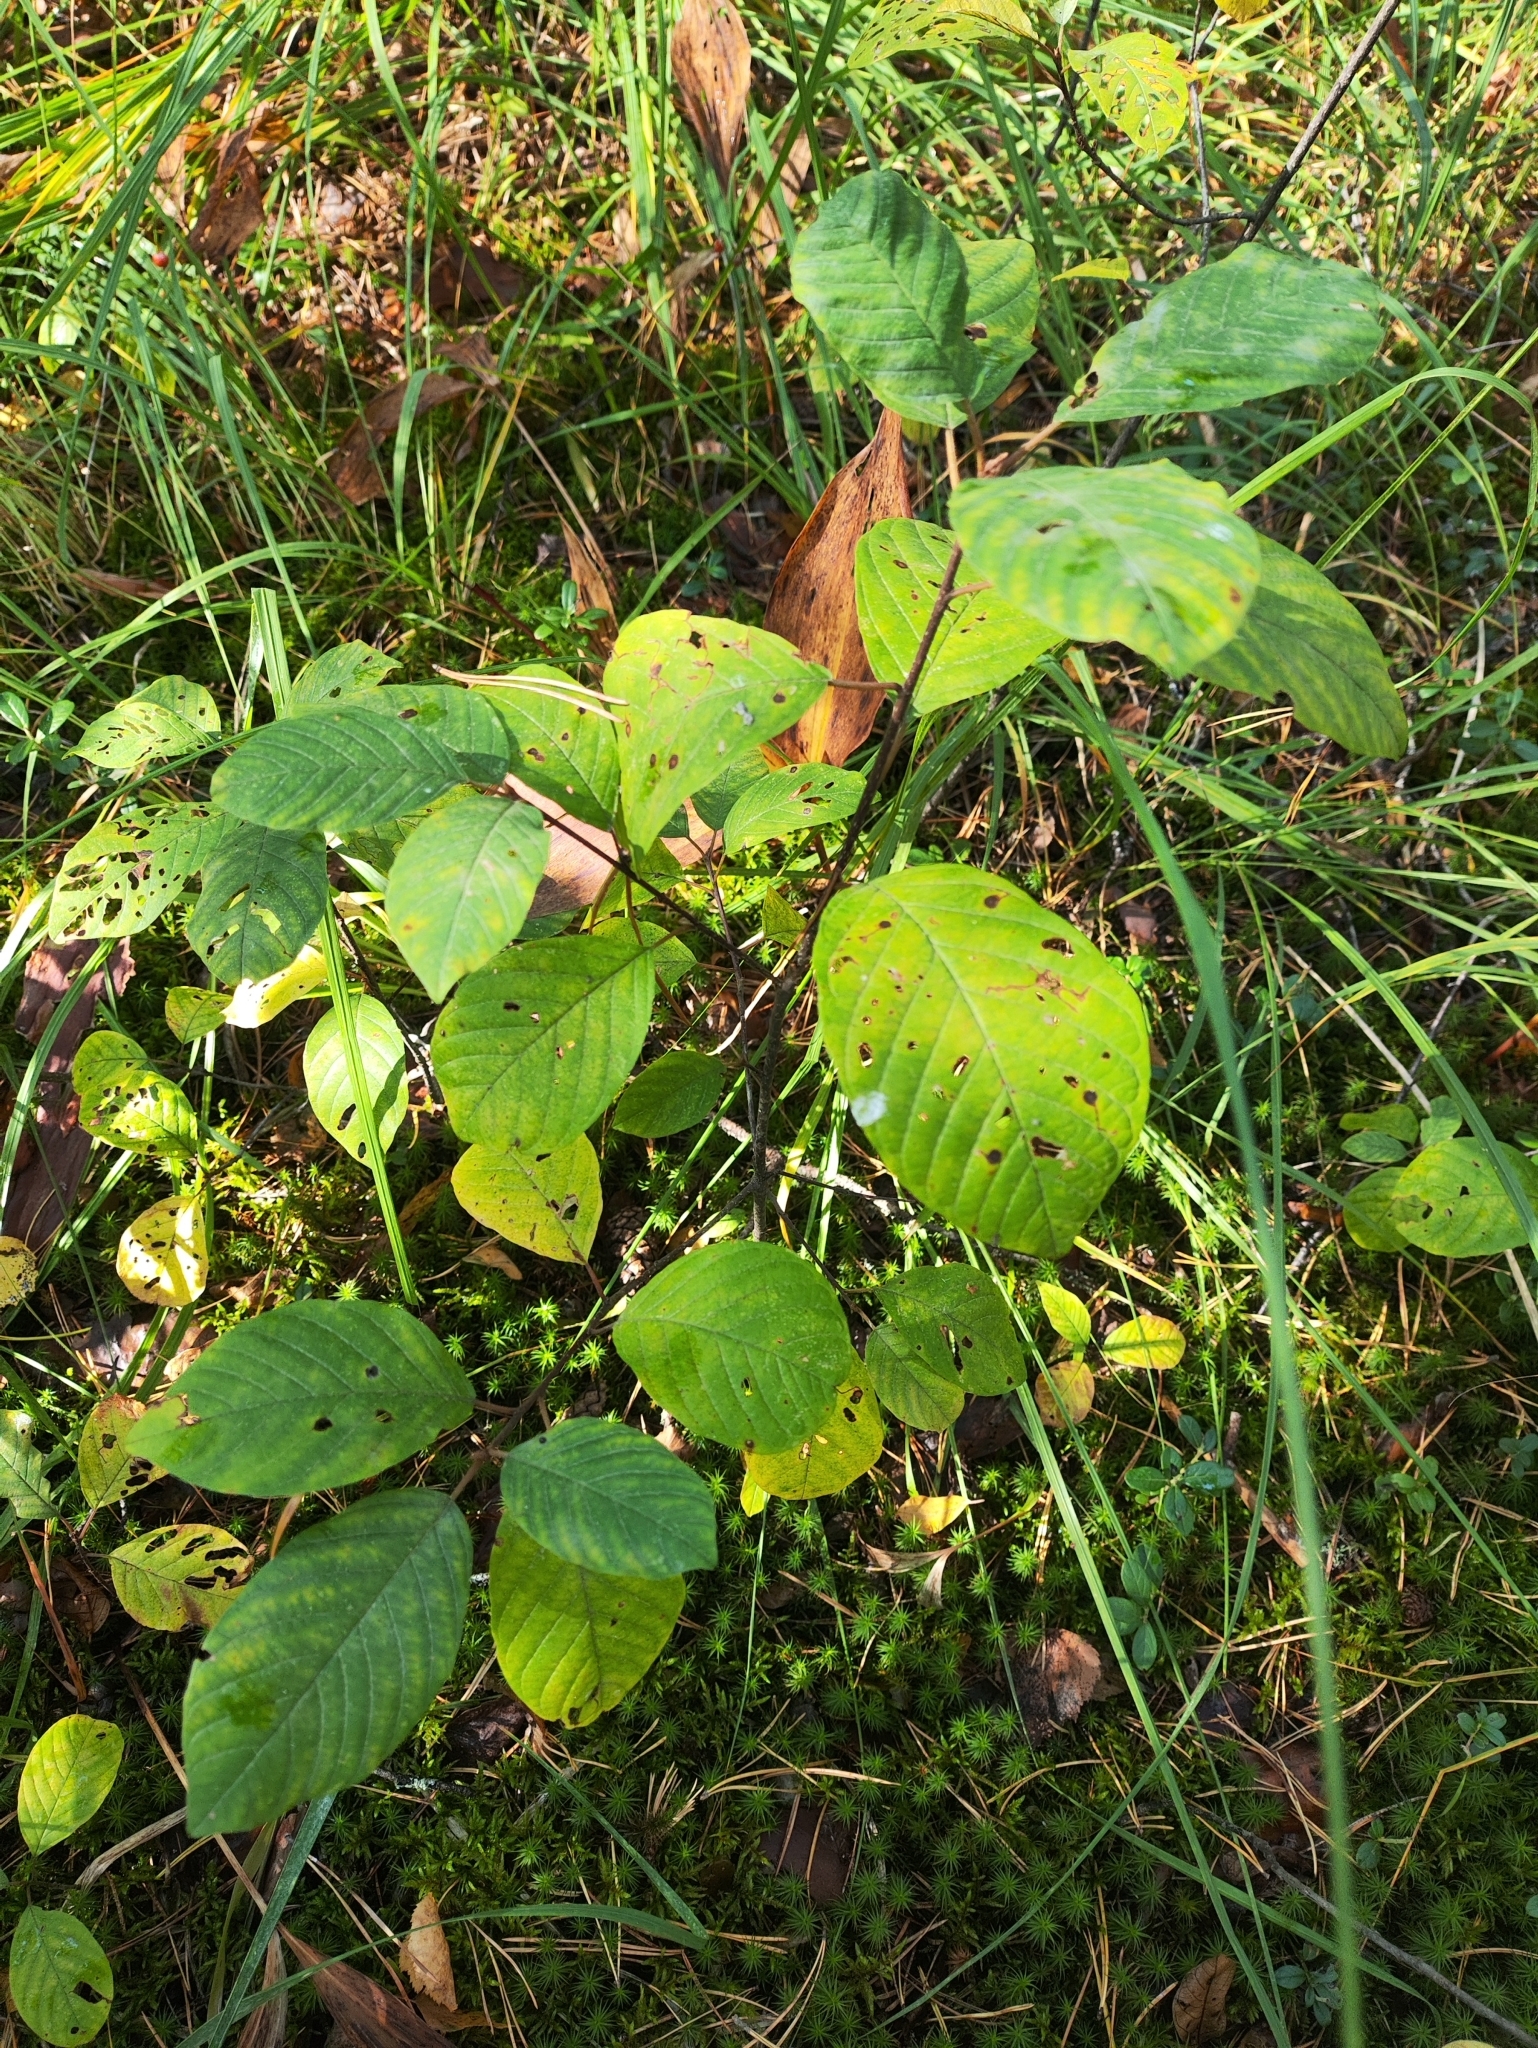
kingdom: Plantae
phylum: Tracheophyta
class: Magnoliopsida
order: Rosales
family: Rhamnaceae
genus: Frangula
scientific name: Frangula alnus
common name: Alder buckthorn
